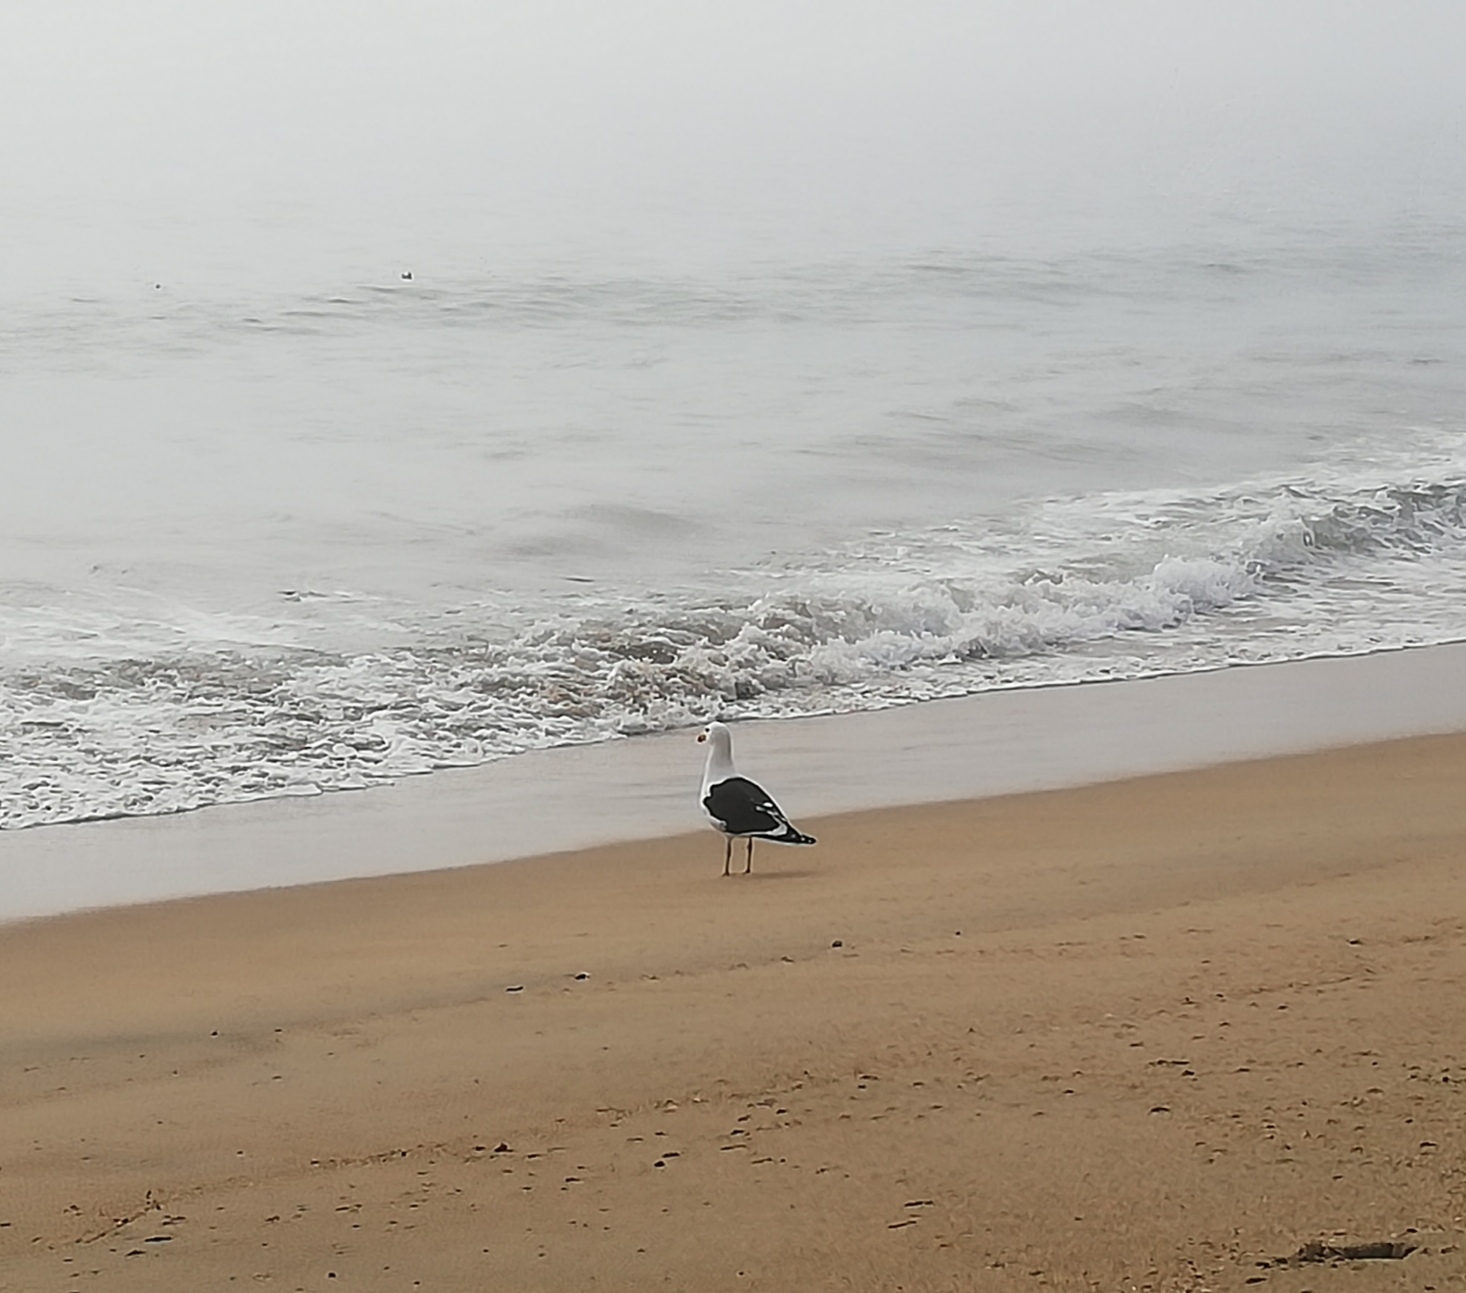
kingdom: Animalia
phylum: Chordata
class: Aves
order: Charadriiformes
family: Laridae
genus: Larus
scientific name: Larus dominicanus
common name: Kelp gull
